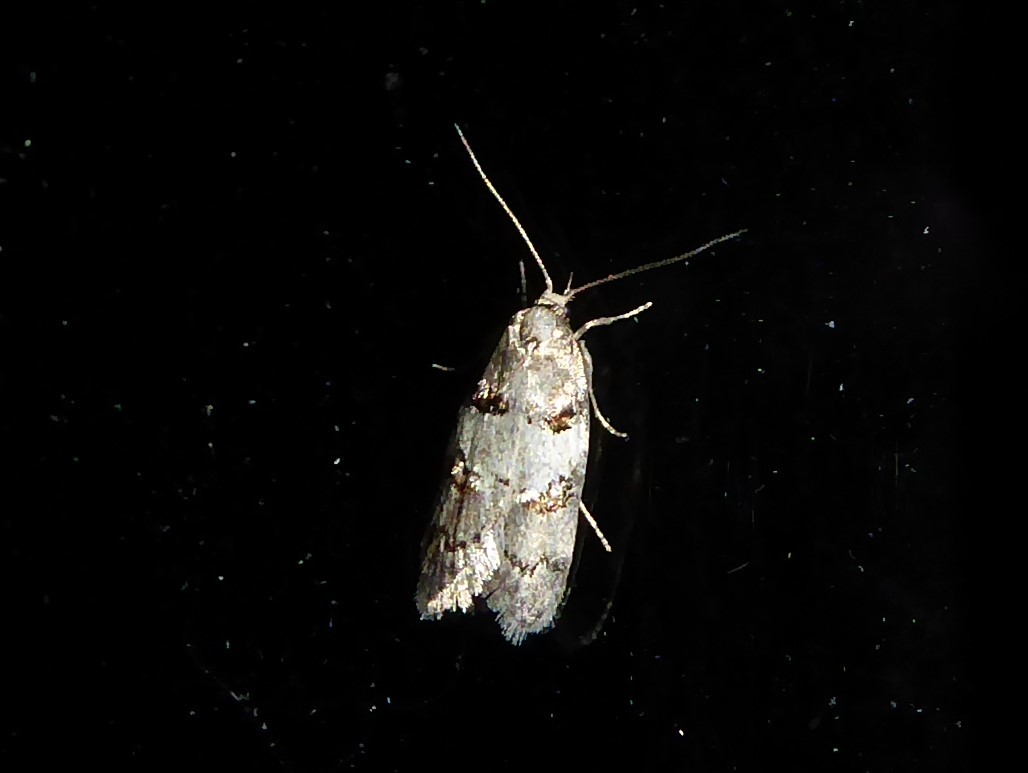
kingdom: Animalia
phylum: Arthropoda
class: Insecta
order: Lepidoptera
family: Oecophoridae
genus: Trachypepla
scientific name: Trachypepla contritella
